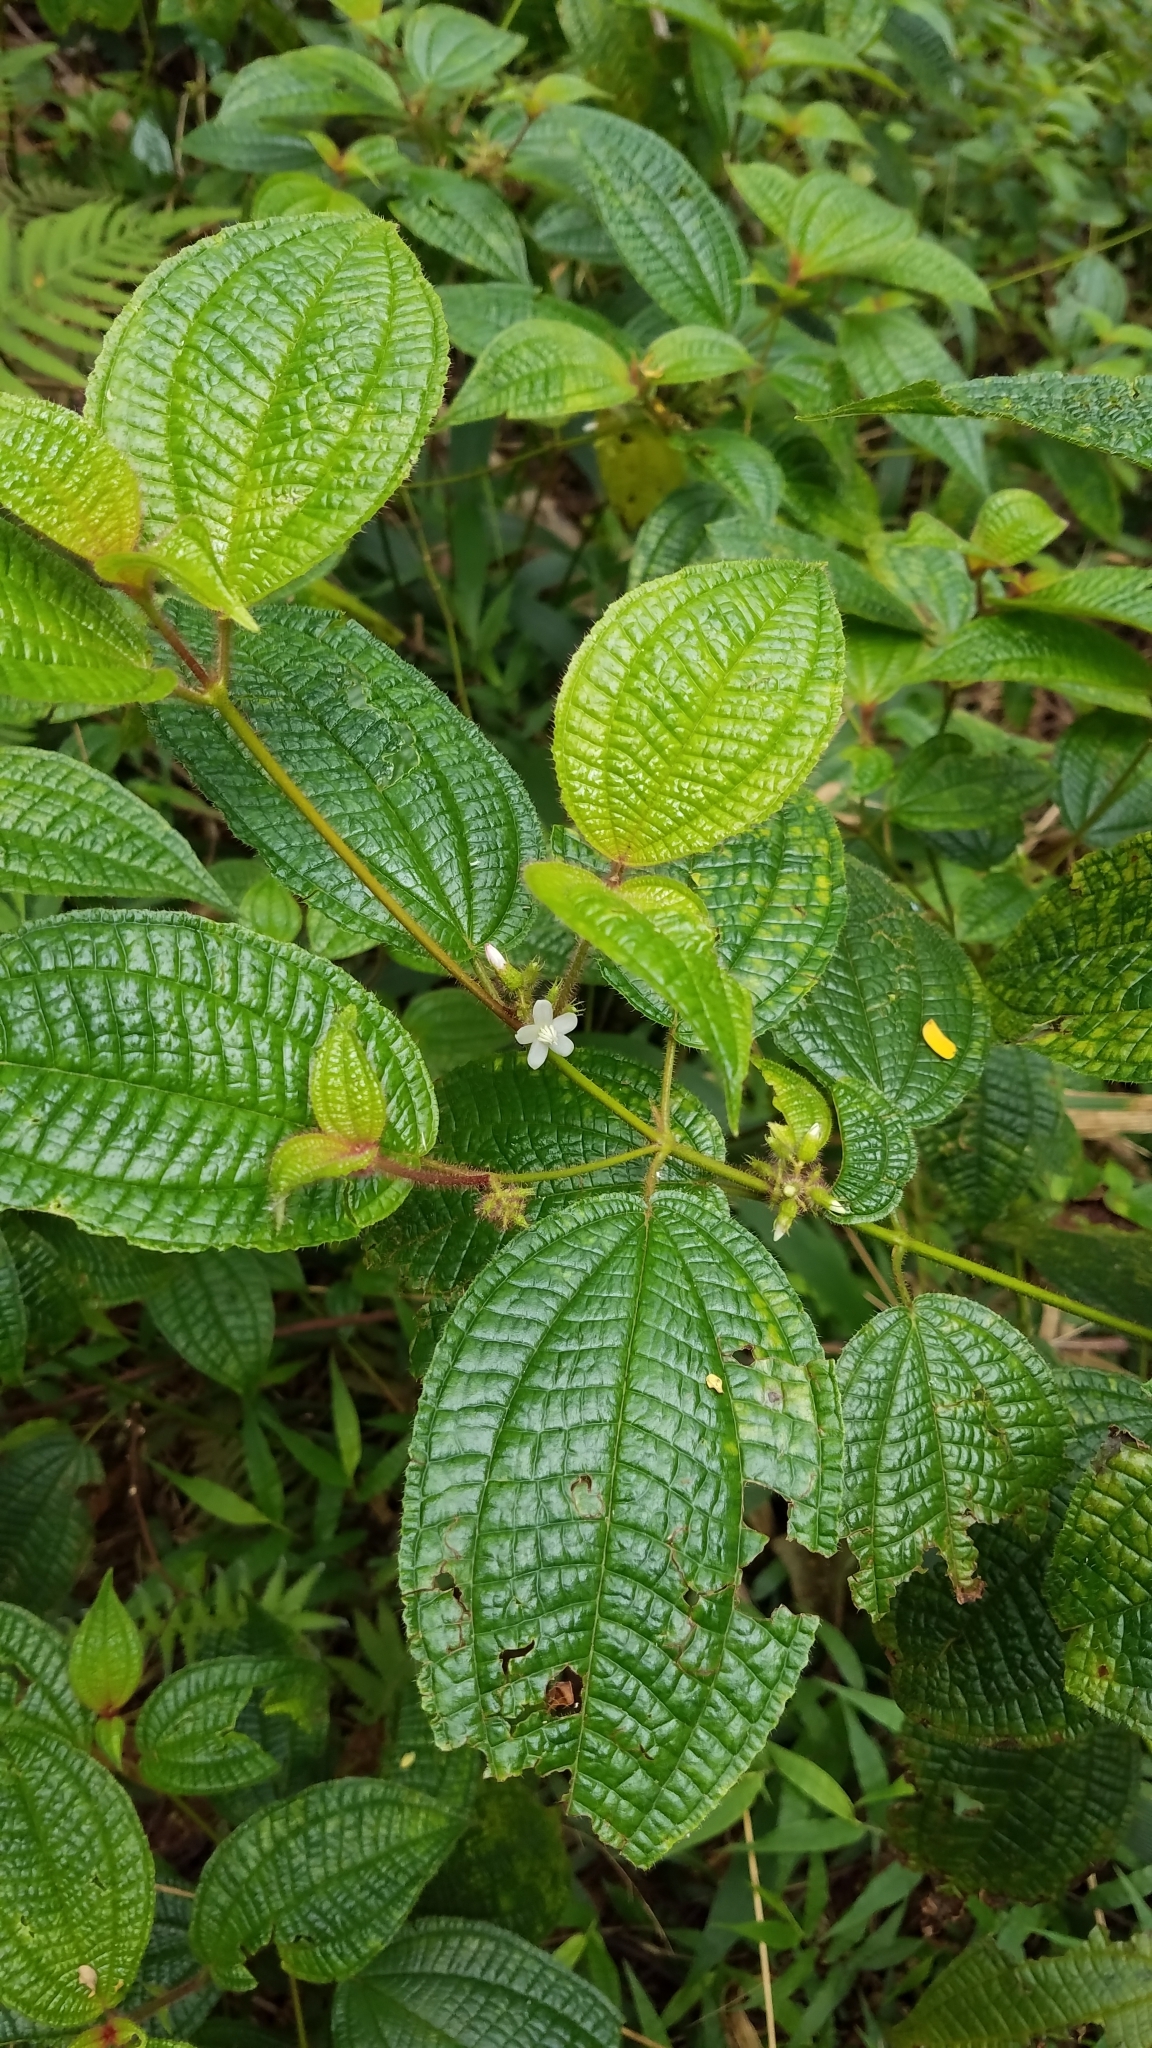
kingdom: Plantae
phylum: Tracheophyta
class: Magnoliopsida
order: Myrtales
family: Melastomataceae
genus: Miconia
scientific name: Miconia crenata
